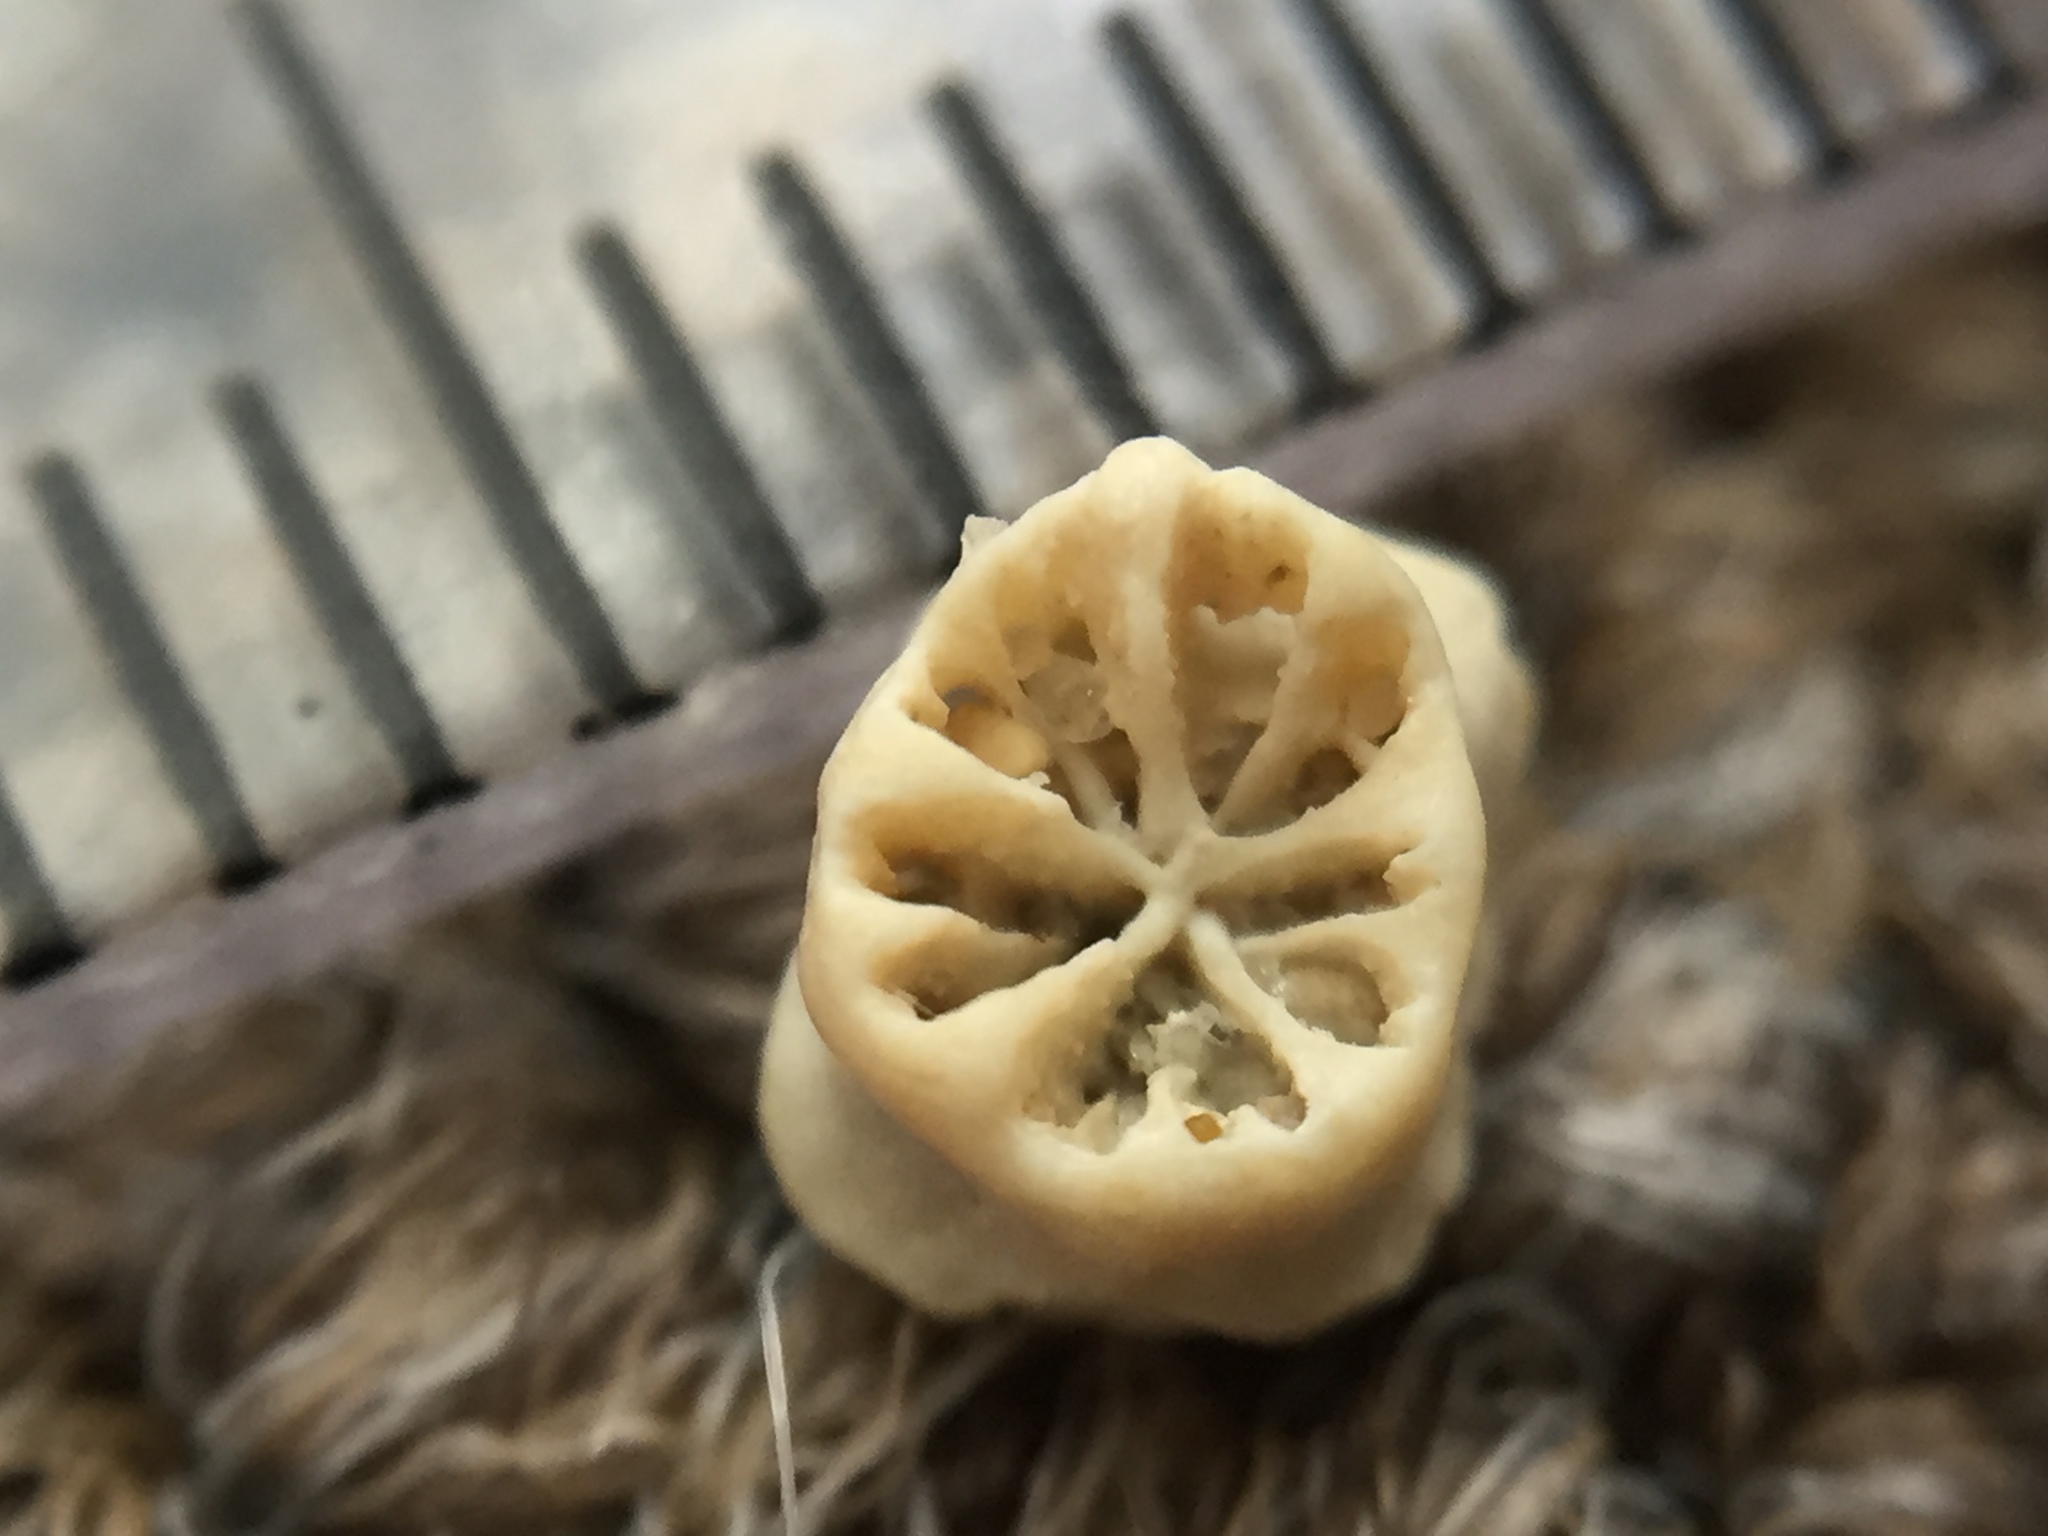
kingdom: Animalia
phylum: Cnidaria
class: Anthozoa
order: Scleractinia
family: Rhizangiidae
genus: Culicia
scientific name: Culicia rubeola
